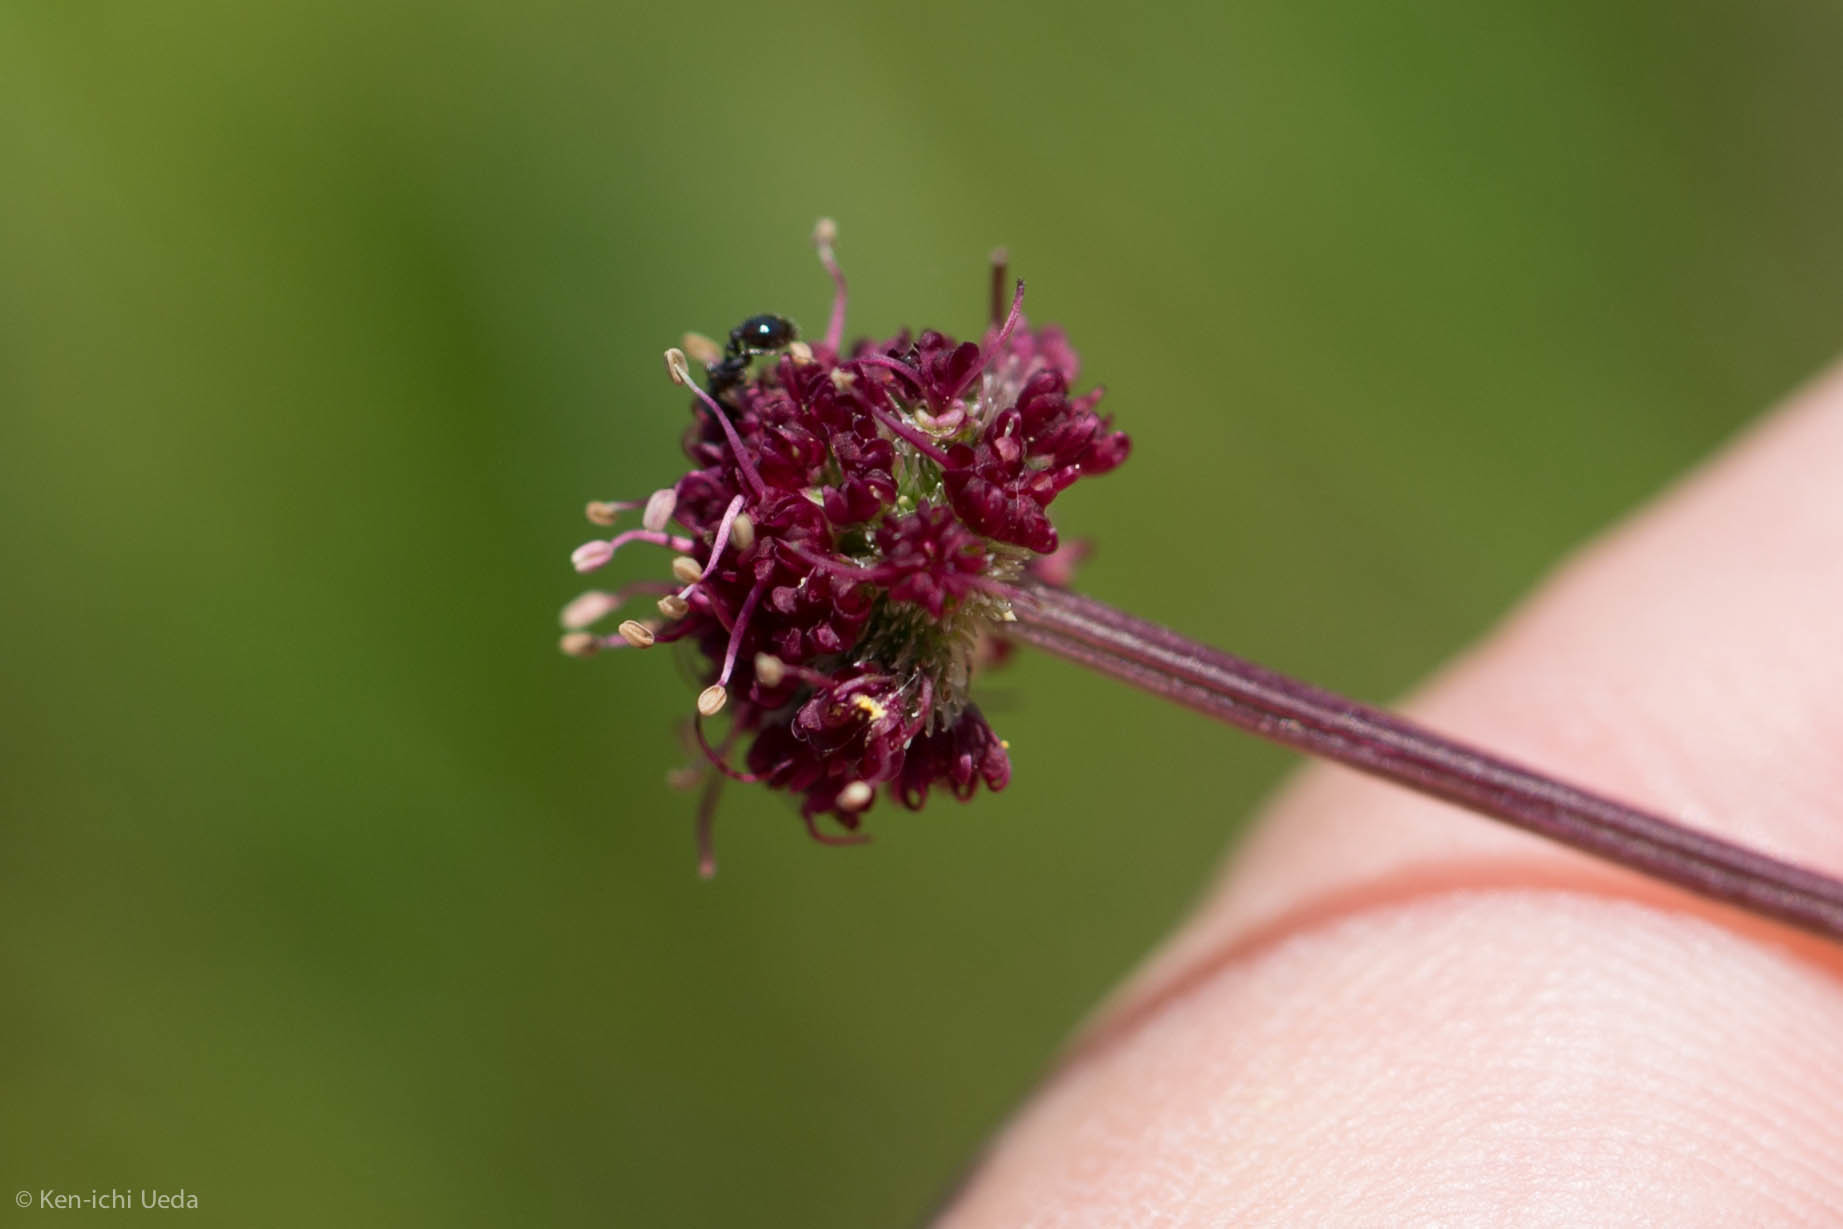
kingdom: Plantae
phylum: Tracheophyta
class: Magnoliopsida
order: Apiales
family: Apiaceae
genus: Sanicula
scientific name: Sanicula bipinnatifida
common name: Shoe-buttons
